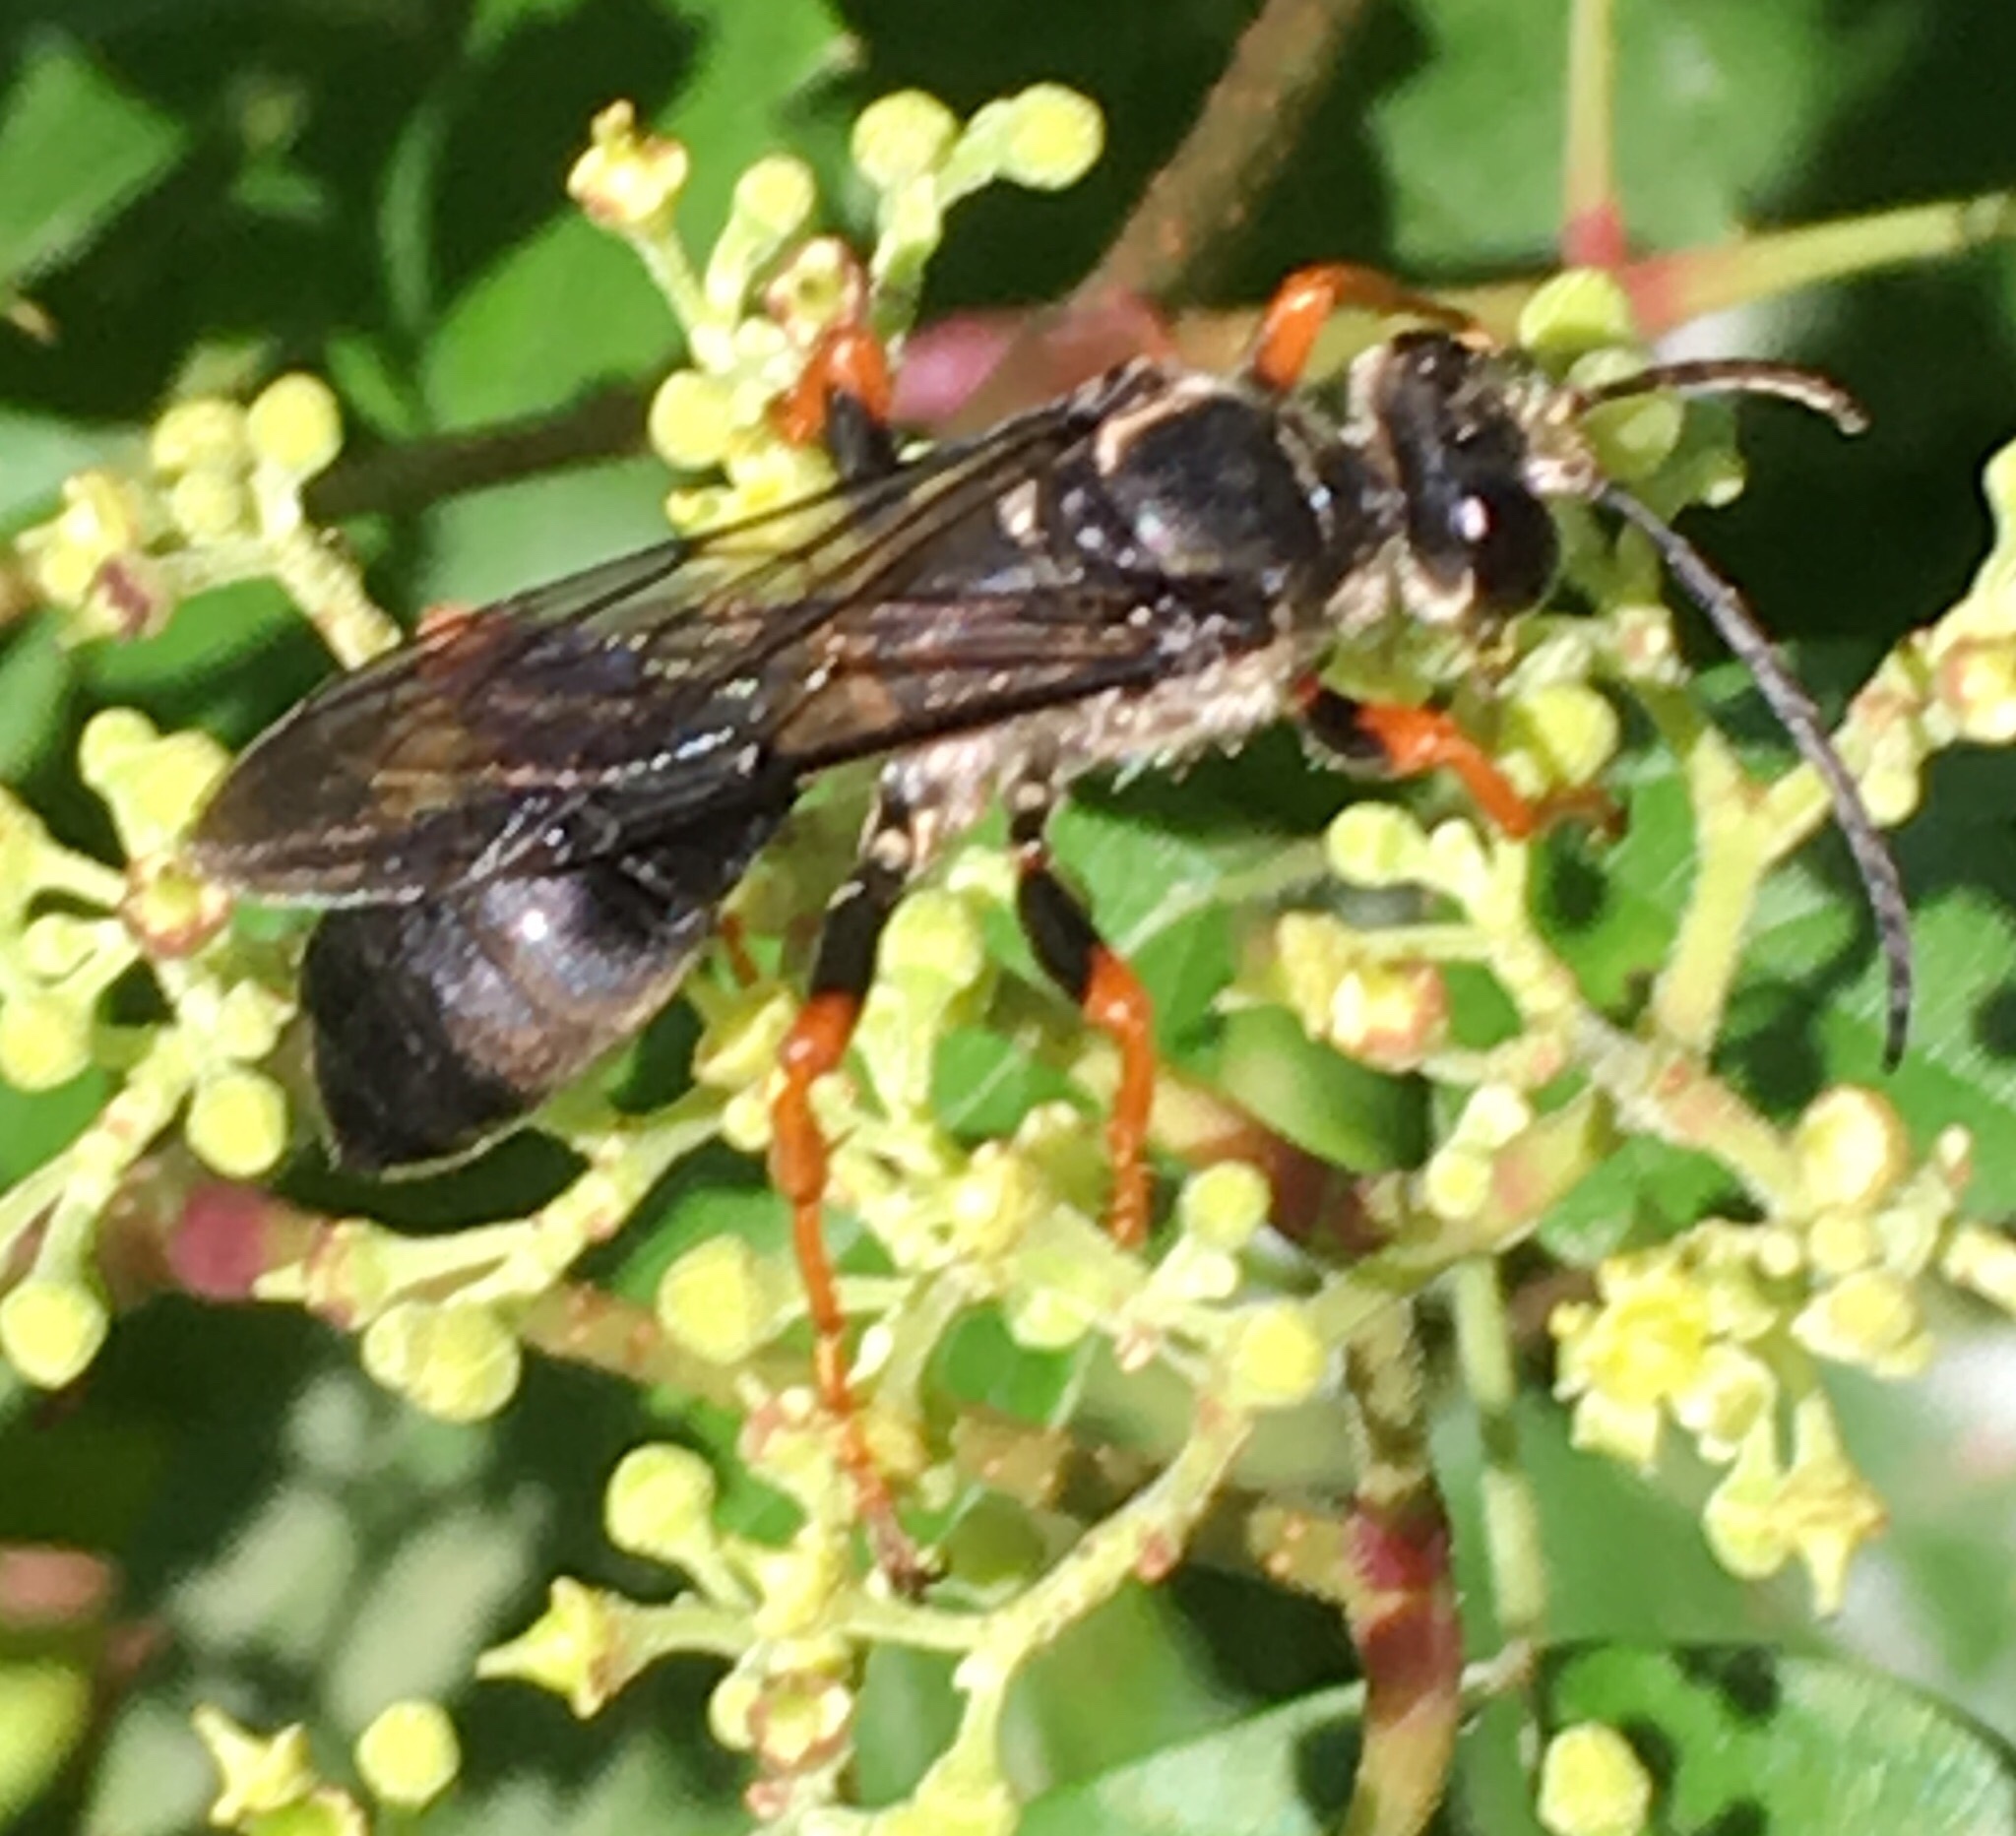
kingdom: Animalia
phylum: Arthropoda
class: Insecta
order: Hymenoptera
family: Sphecidae
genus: Sphex
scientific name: Sphex nudus
